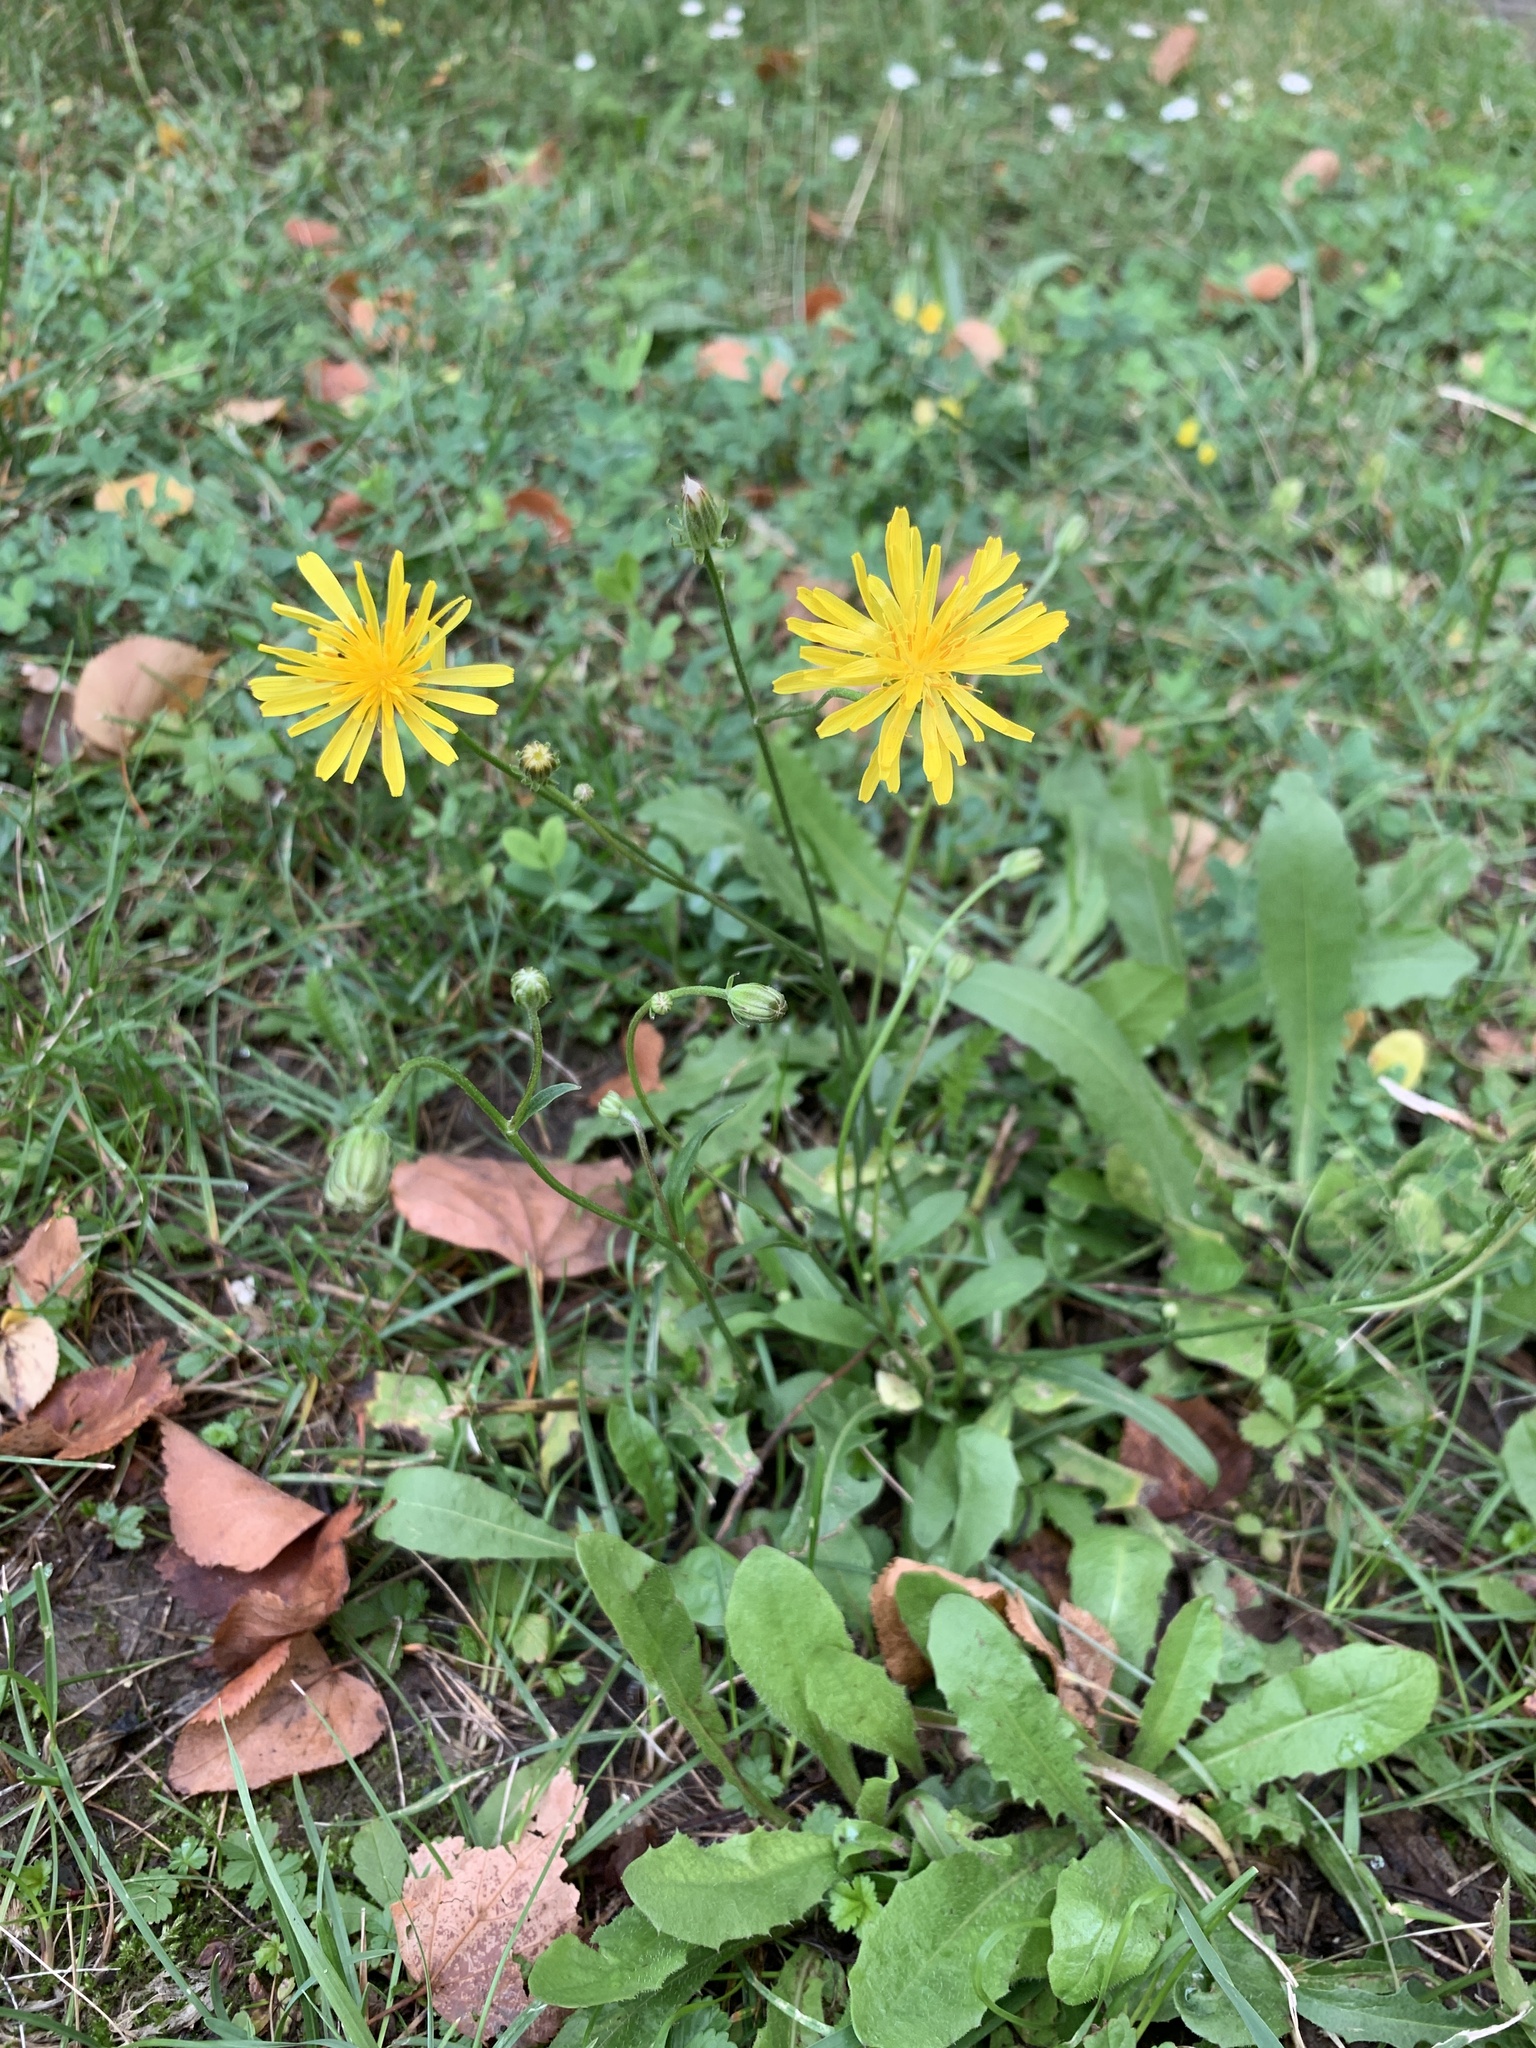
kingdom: Plantae
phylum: Tracheophyta
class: Magnoliopsida
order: Asterales
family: Asteraceae
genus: Scorzoneroides
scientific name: Scorzoneroides autumnalis
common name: Autumn hawkbit
